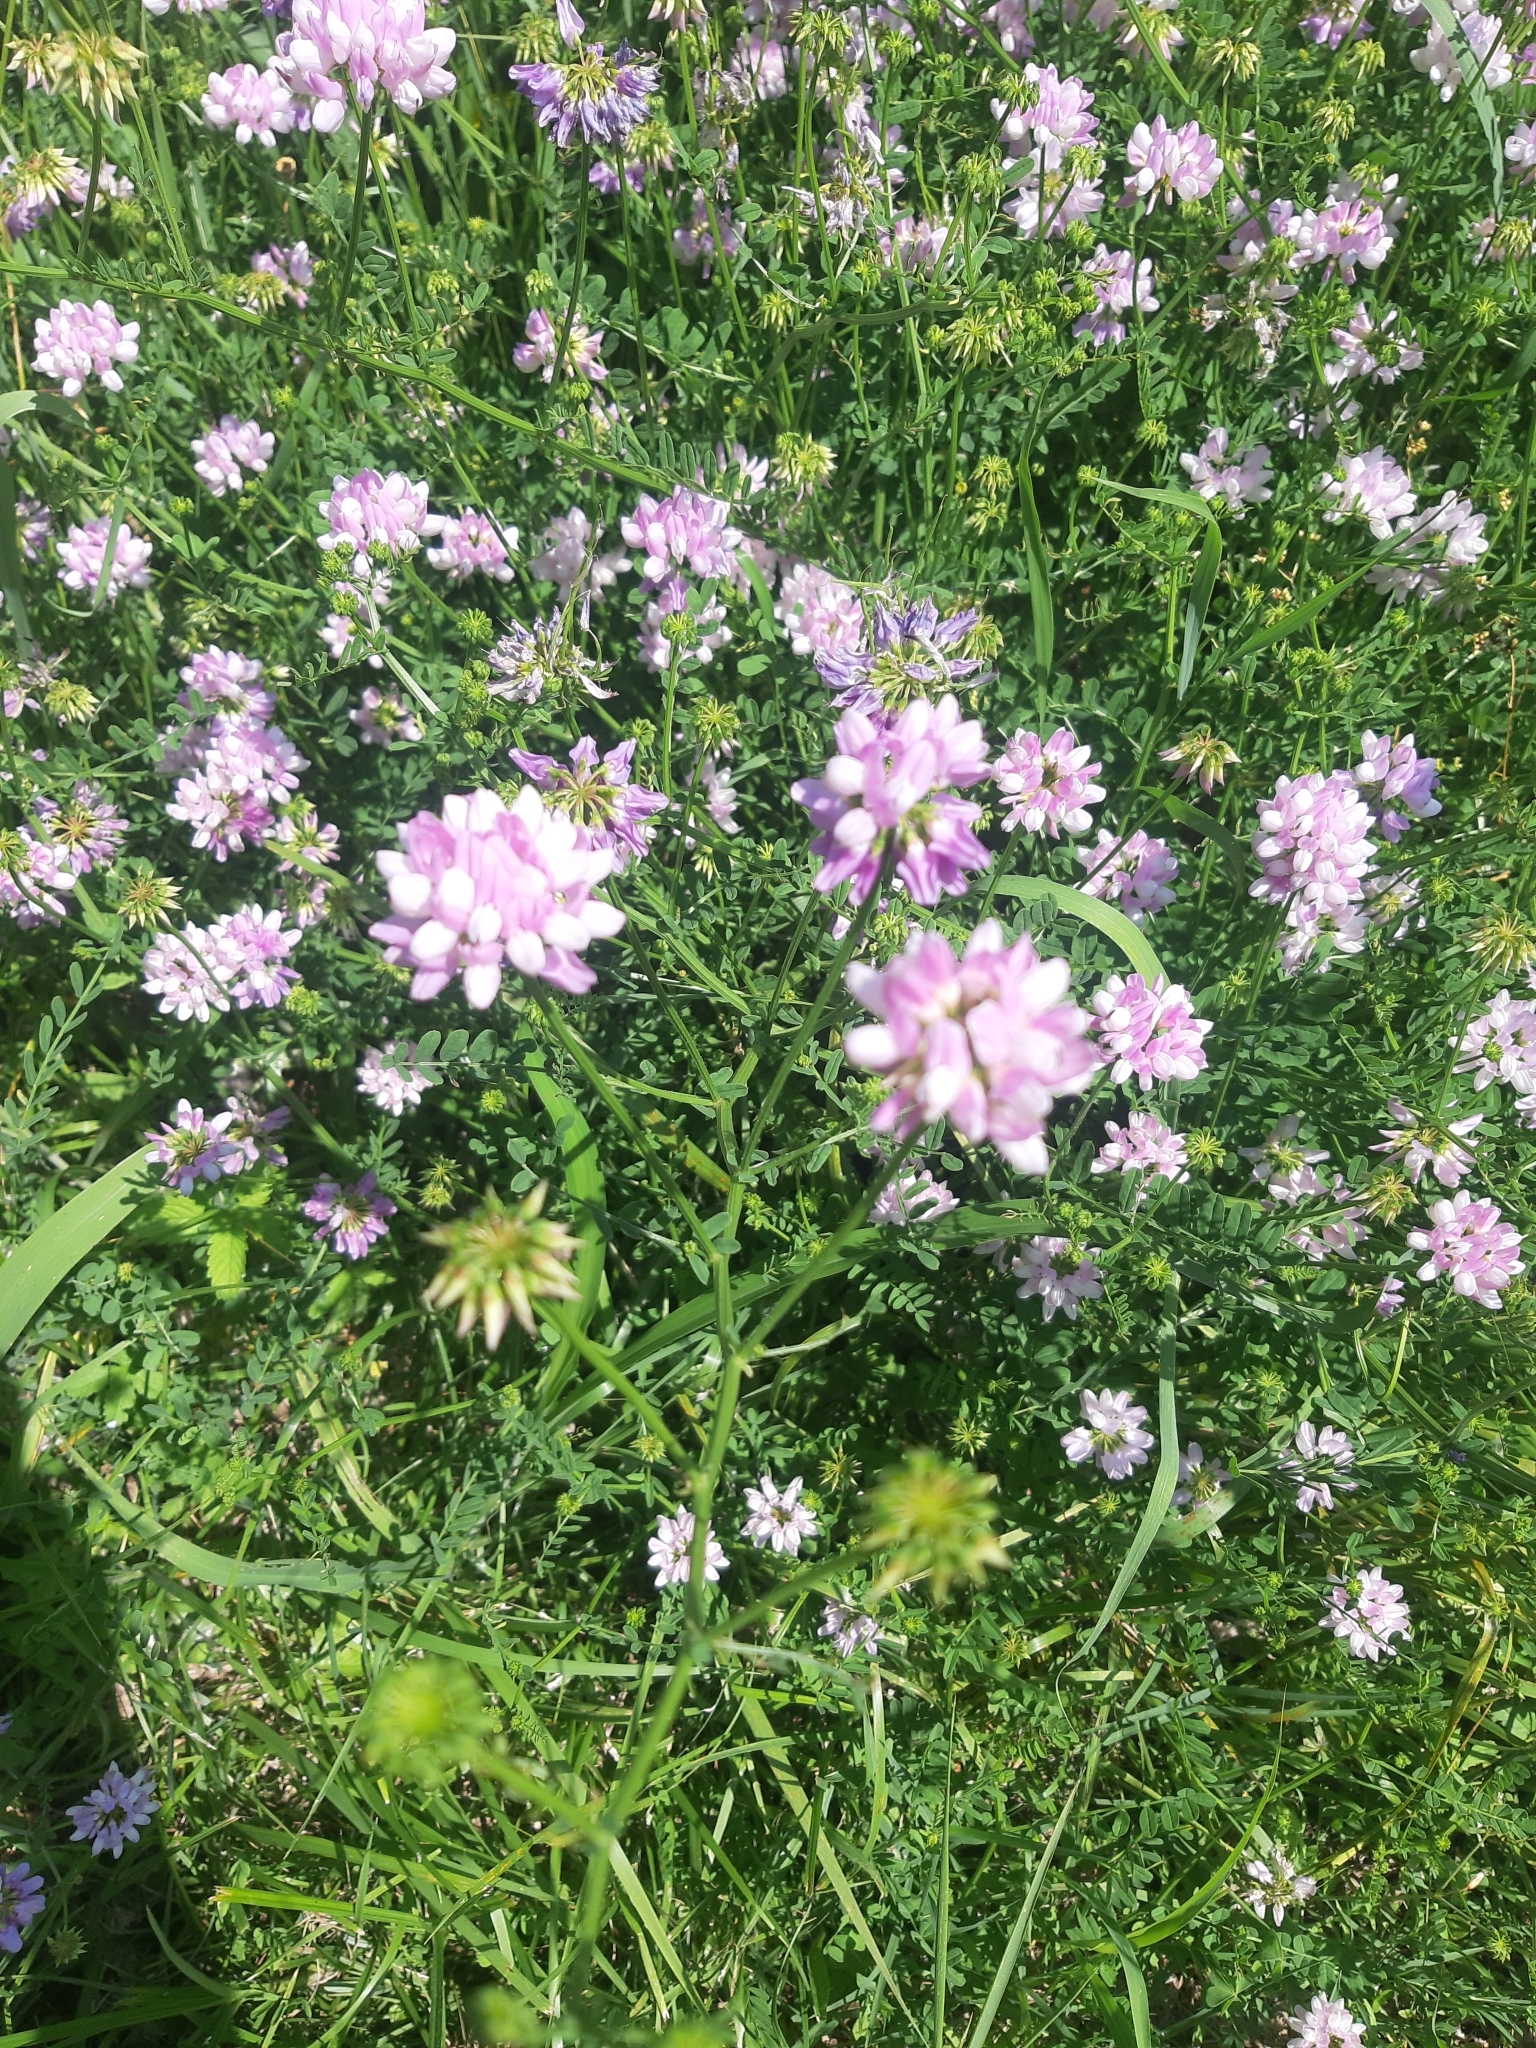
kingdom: Plantae
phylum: Tracheophyta
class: Magnoliopsida
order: Fabales
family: Fabaceae
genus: Coronilla
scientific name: Coronilla varia
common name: Crownvetch
